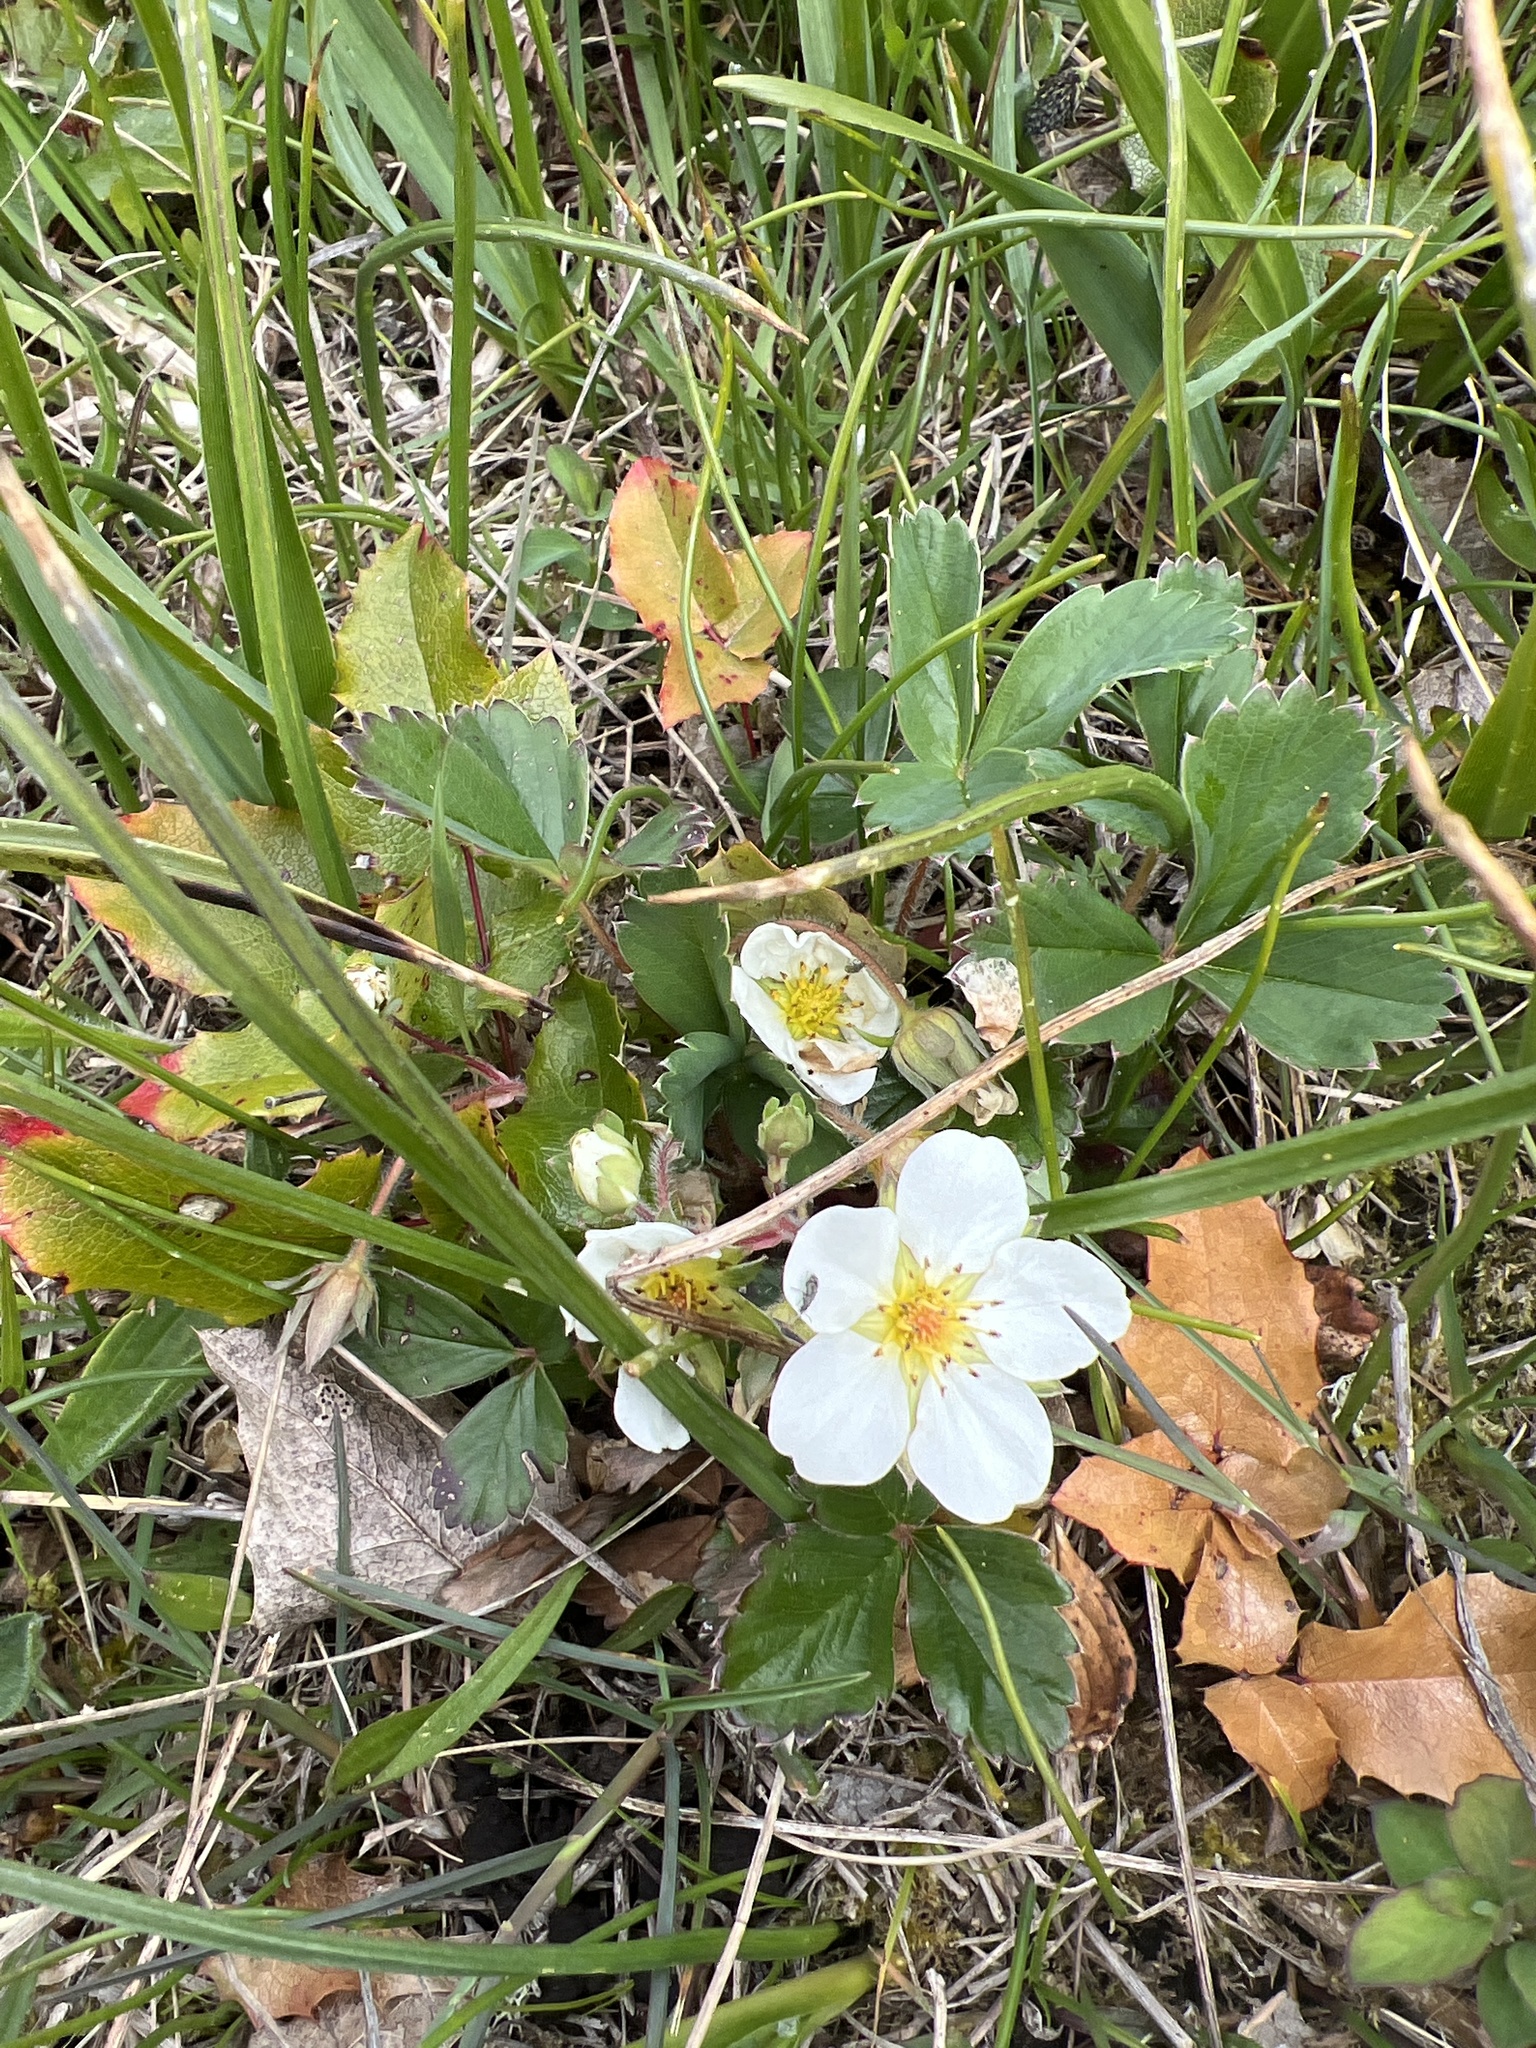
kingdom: Plantae
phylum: Tracheophyta
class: Magnoliopsida
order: Rosales
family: Rosaceae
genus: Fragaria
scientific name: Fragaria virginiana
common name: Thickleaved wild strawberry
